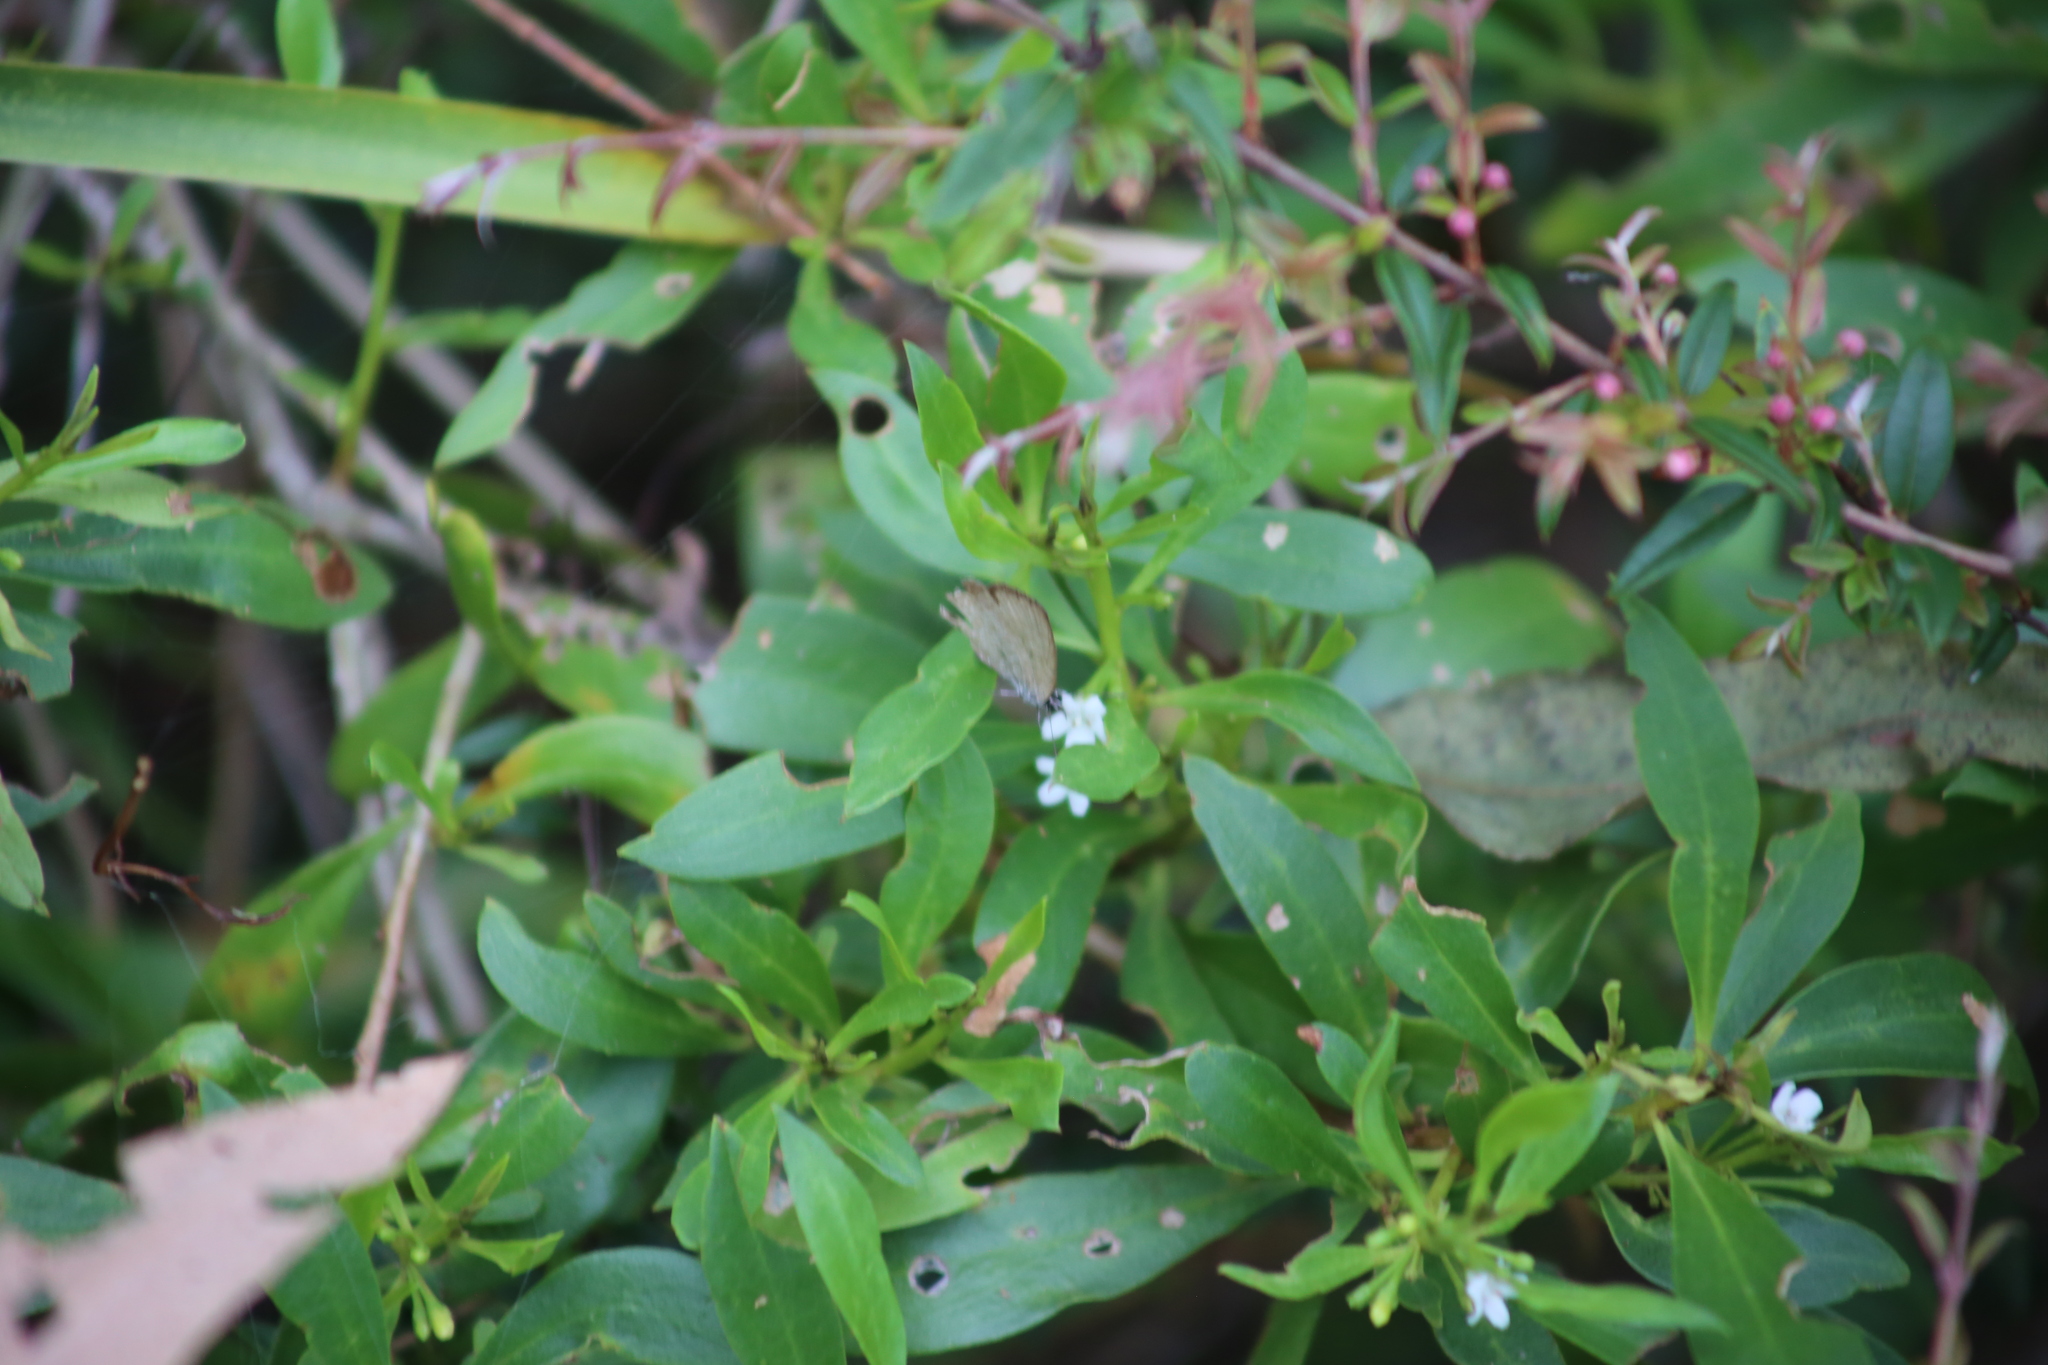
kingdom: Animalia
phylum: Arthropoda
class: Insecta
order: Lepidoptera
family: Lycaenidae
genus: Nacaduba
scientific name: Nacaduba berenice
